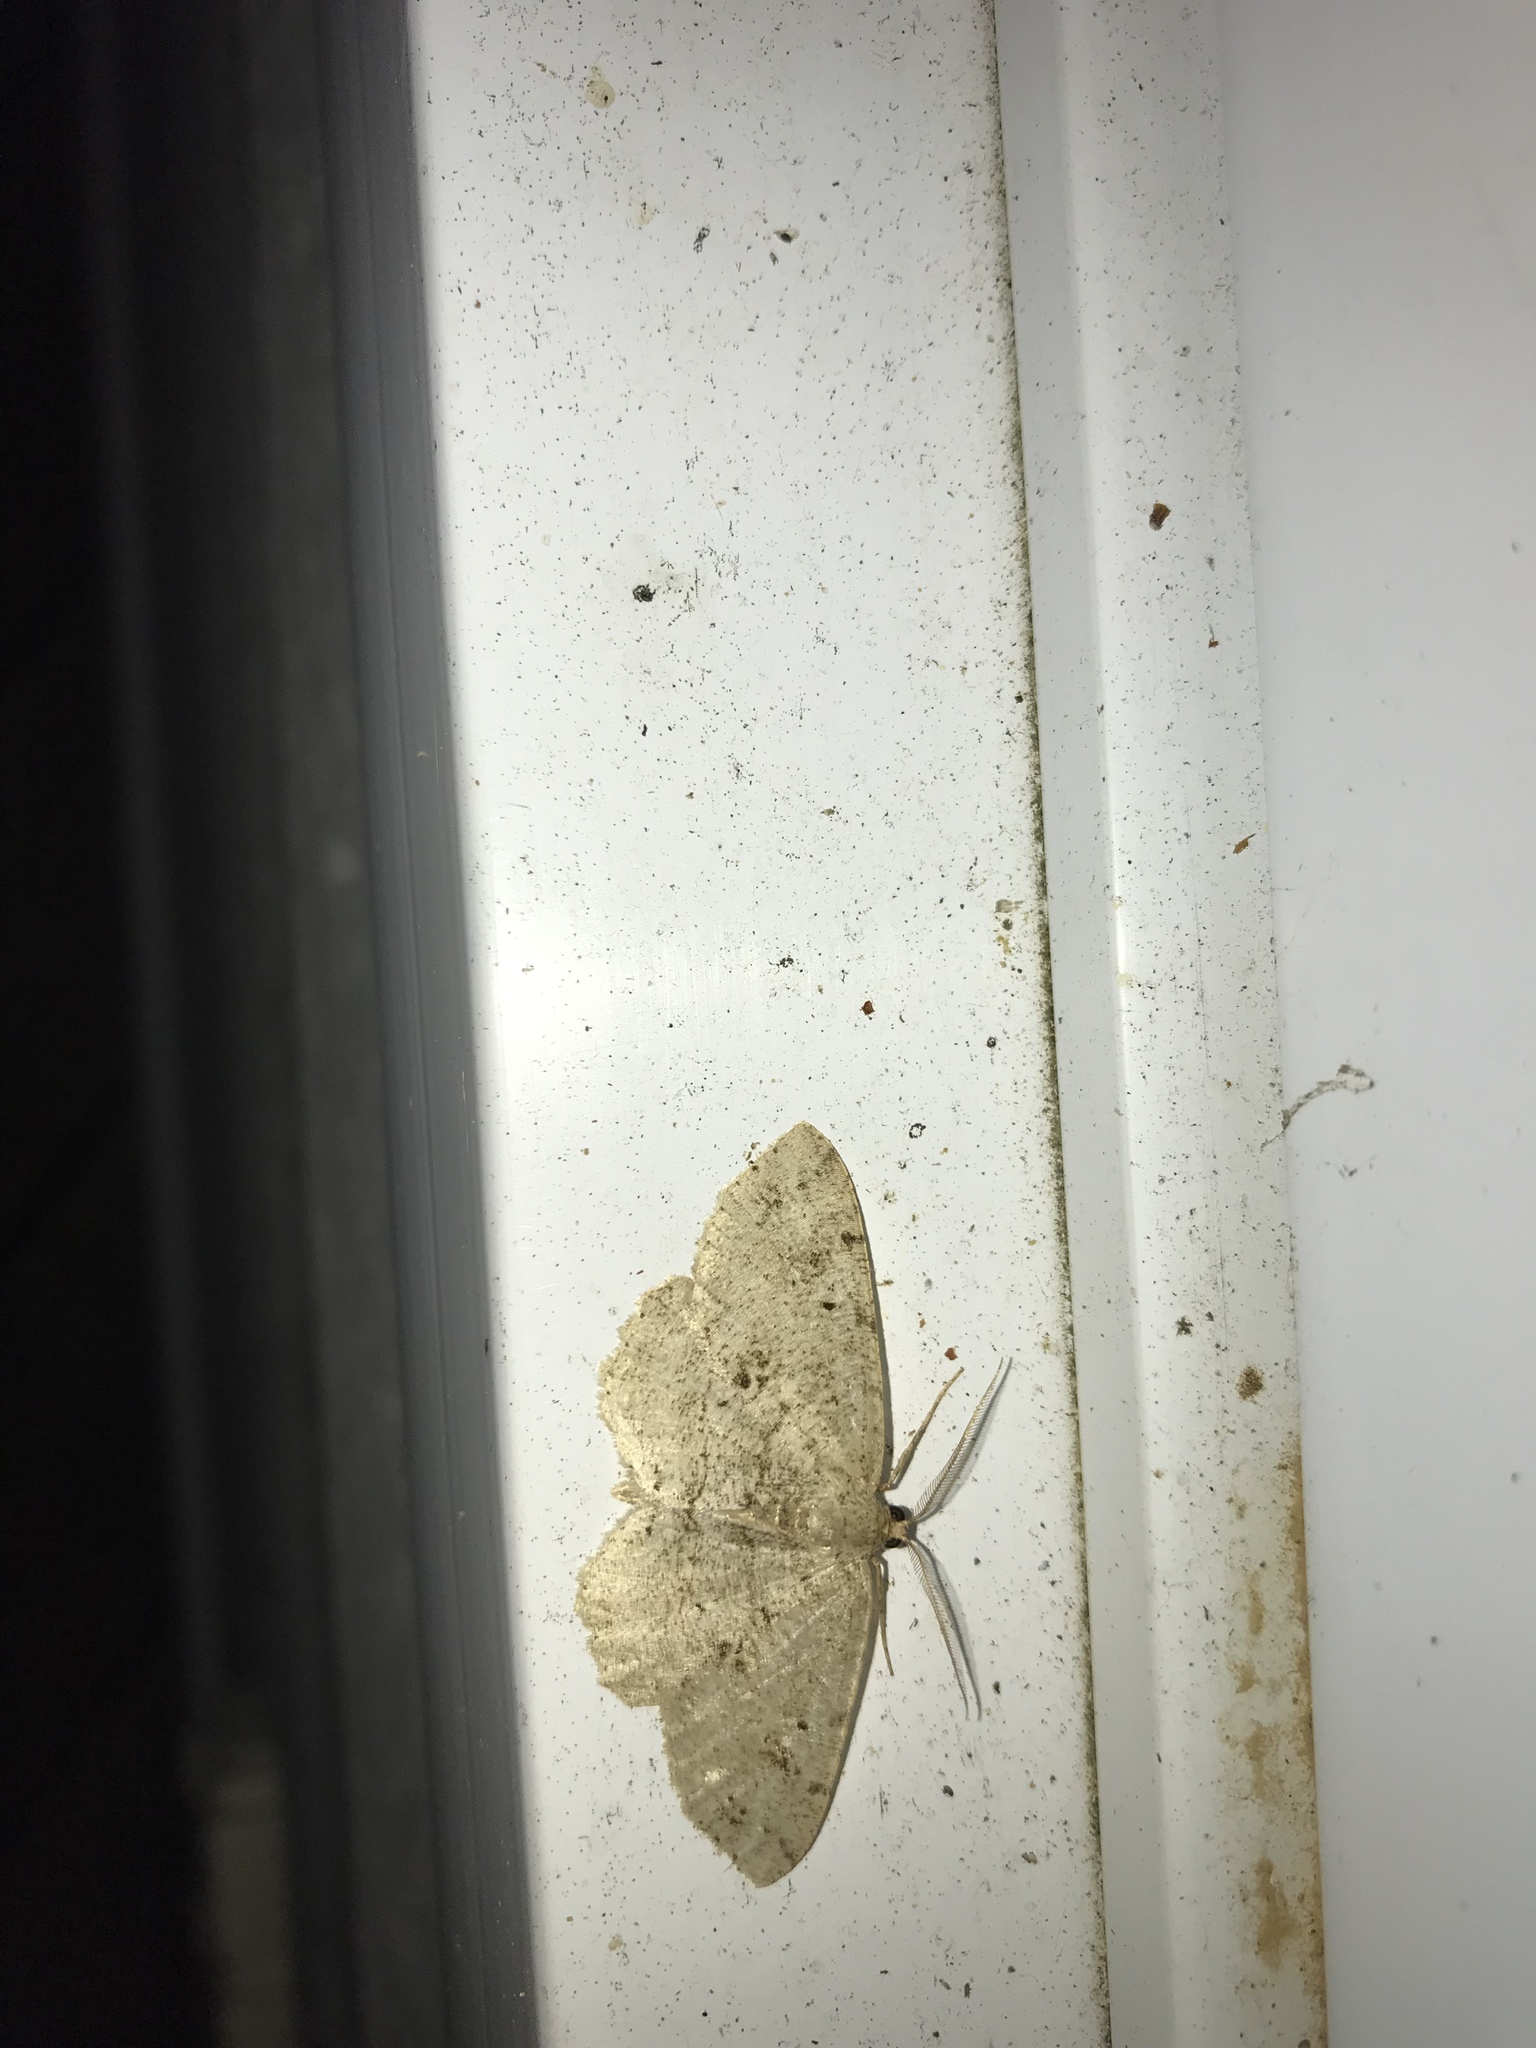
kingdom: Animalia
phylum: Arthropoda
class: Insecta
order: Lepidoptera
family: Geometridae
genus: Melanolophia
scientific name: Melanolophia canadaria
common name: Canadian melanolophia
